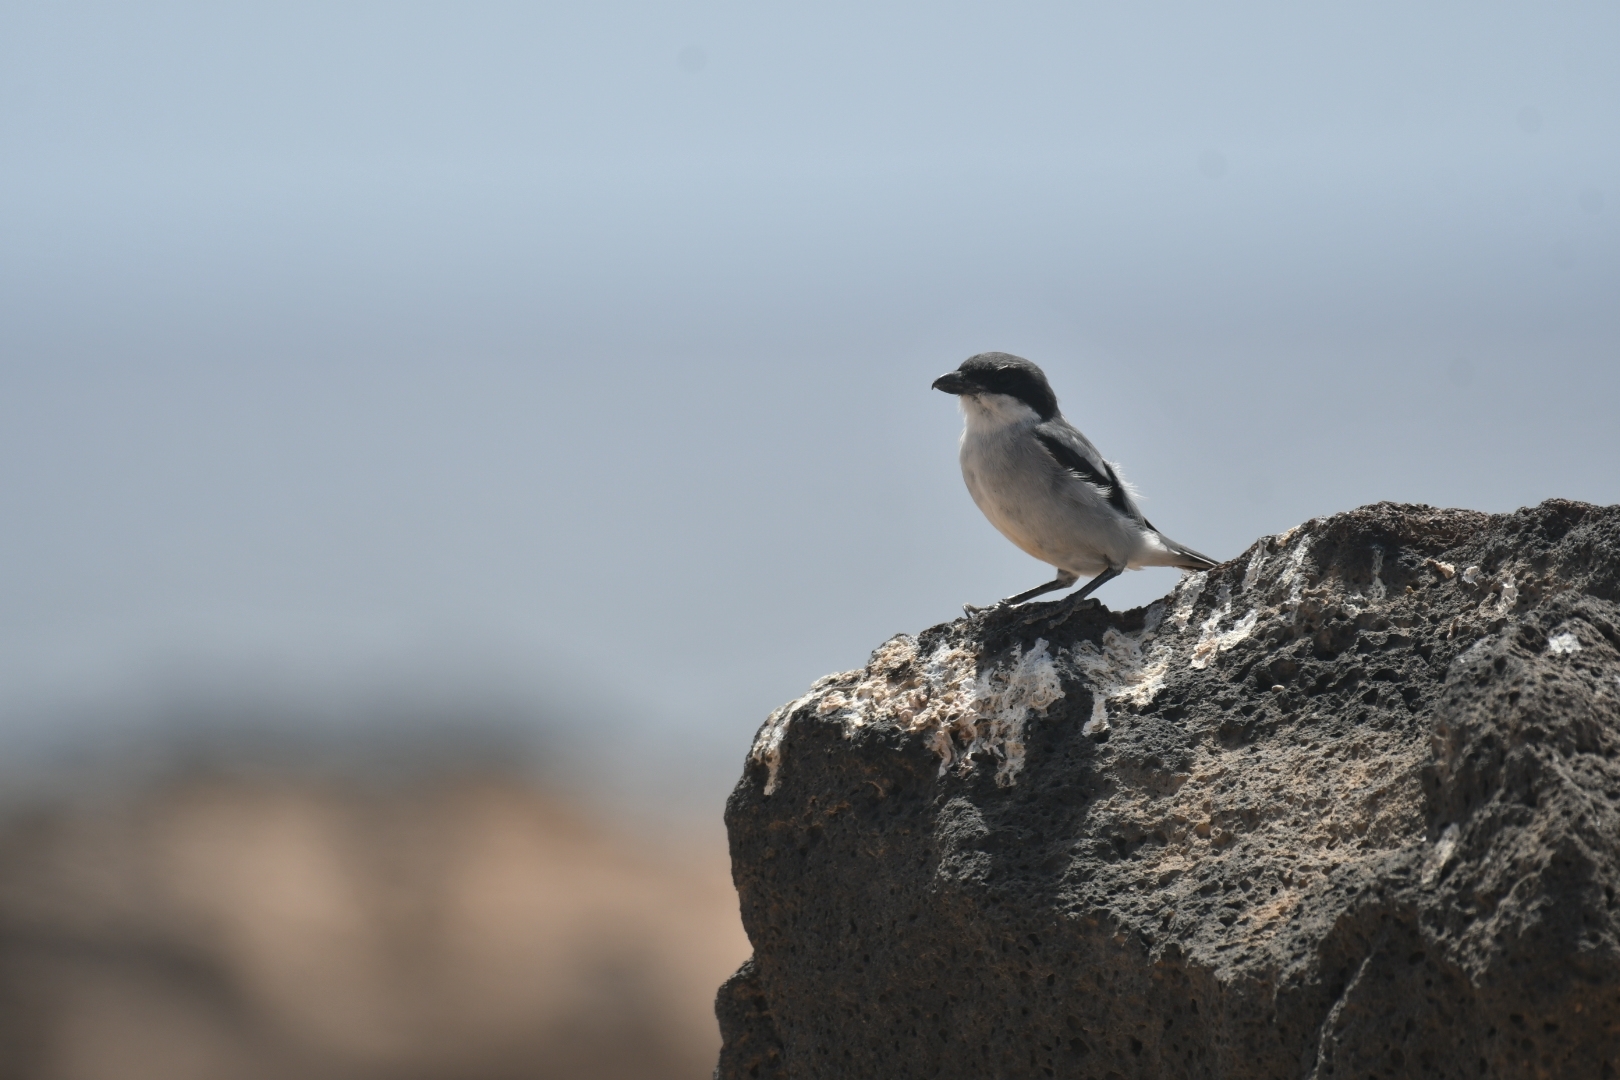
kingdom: Animalia
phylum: Chordata
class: Aves
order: Passeriformes
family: Laniidae
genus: Lanius
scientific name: Lanius excubitor
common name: Great grey shrike
